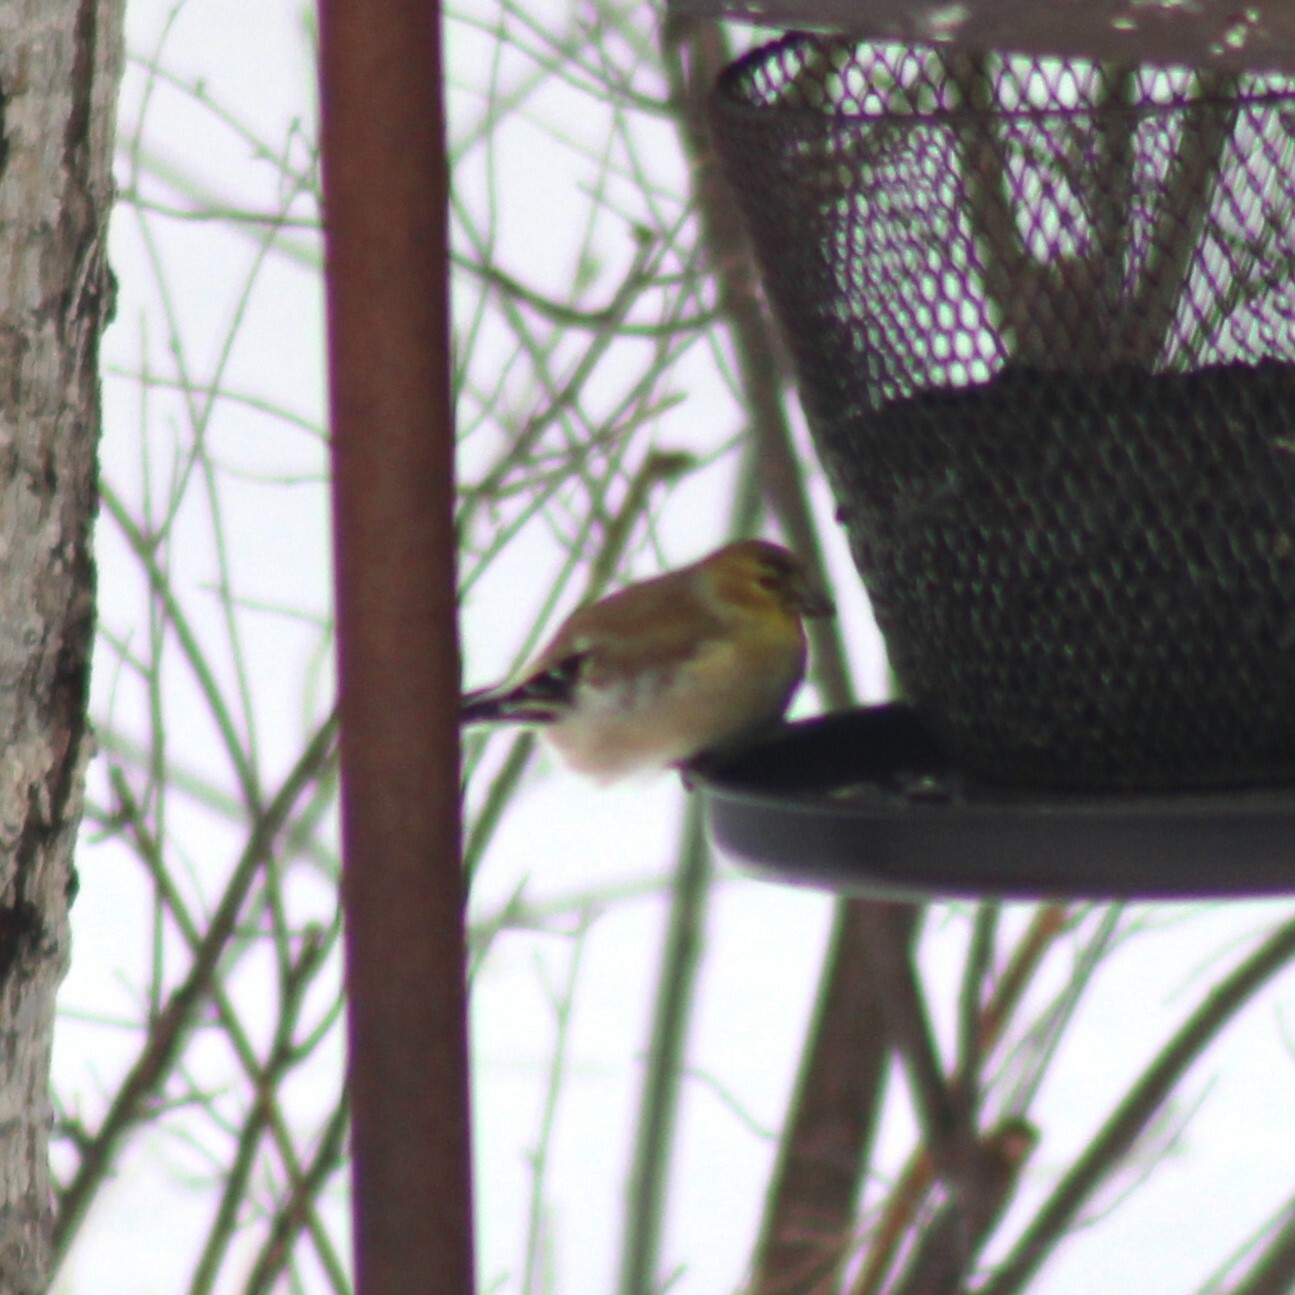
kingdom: Animalia
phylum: Chordata
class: Aves
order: Passeriformes
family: Fringillidae
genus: Spinus
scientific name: Spinus tristis
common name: American goldfinch
